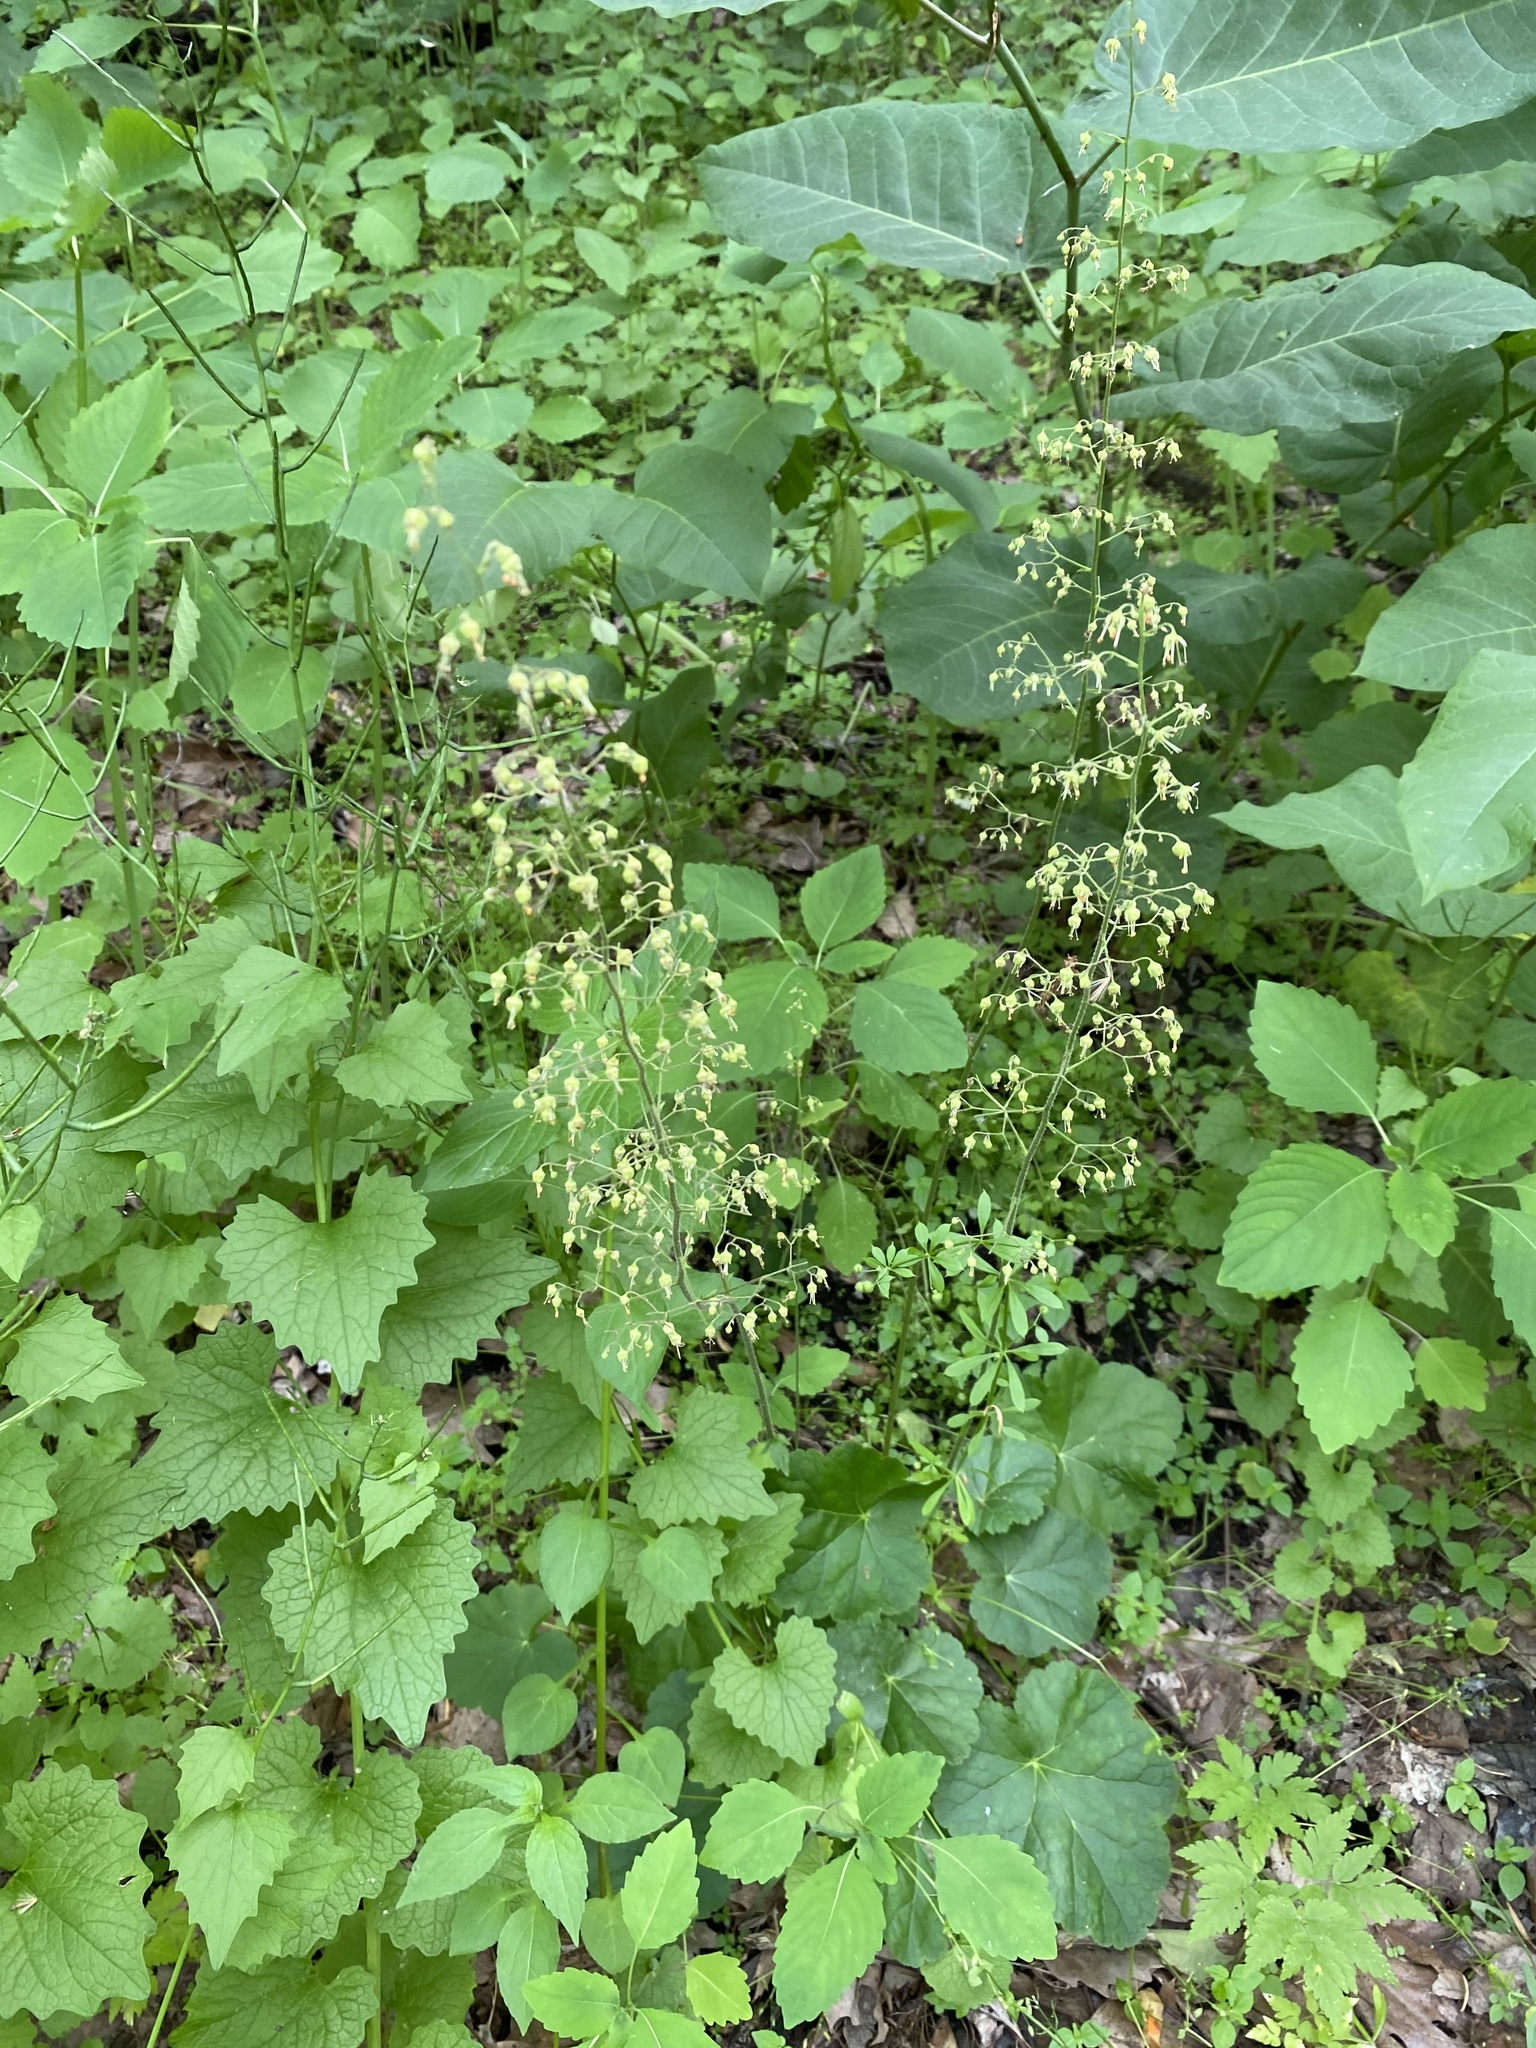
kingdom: Plantae
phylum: Tracheophyta
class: Magnoliopsida
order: Saxifragales
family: Saxifragaceae
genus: Heuchera
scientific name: Heuchera americana
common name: Alumroot
